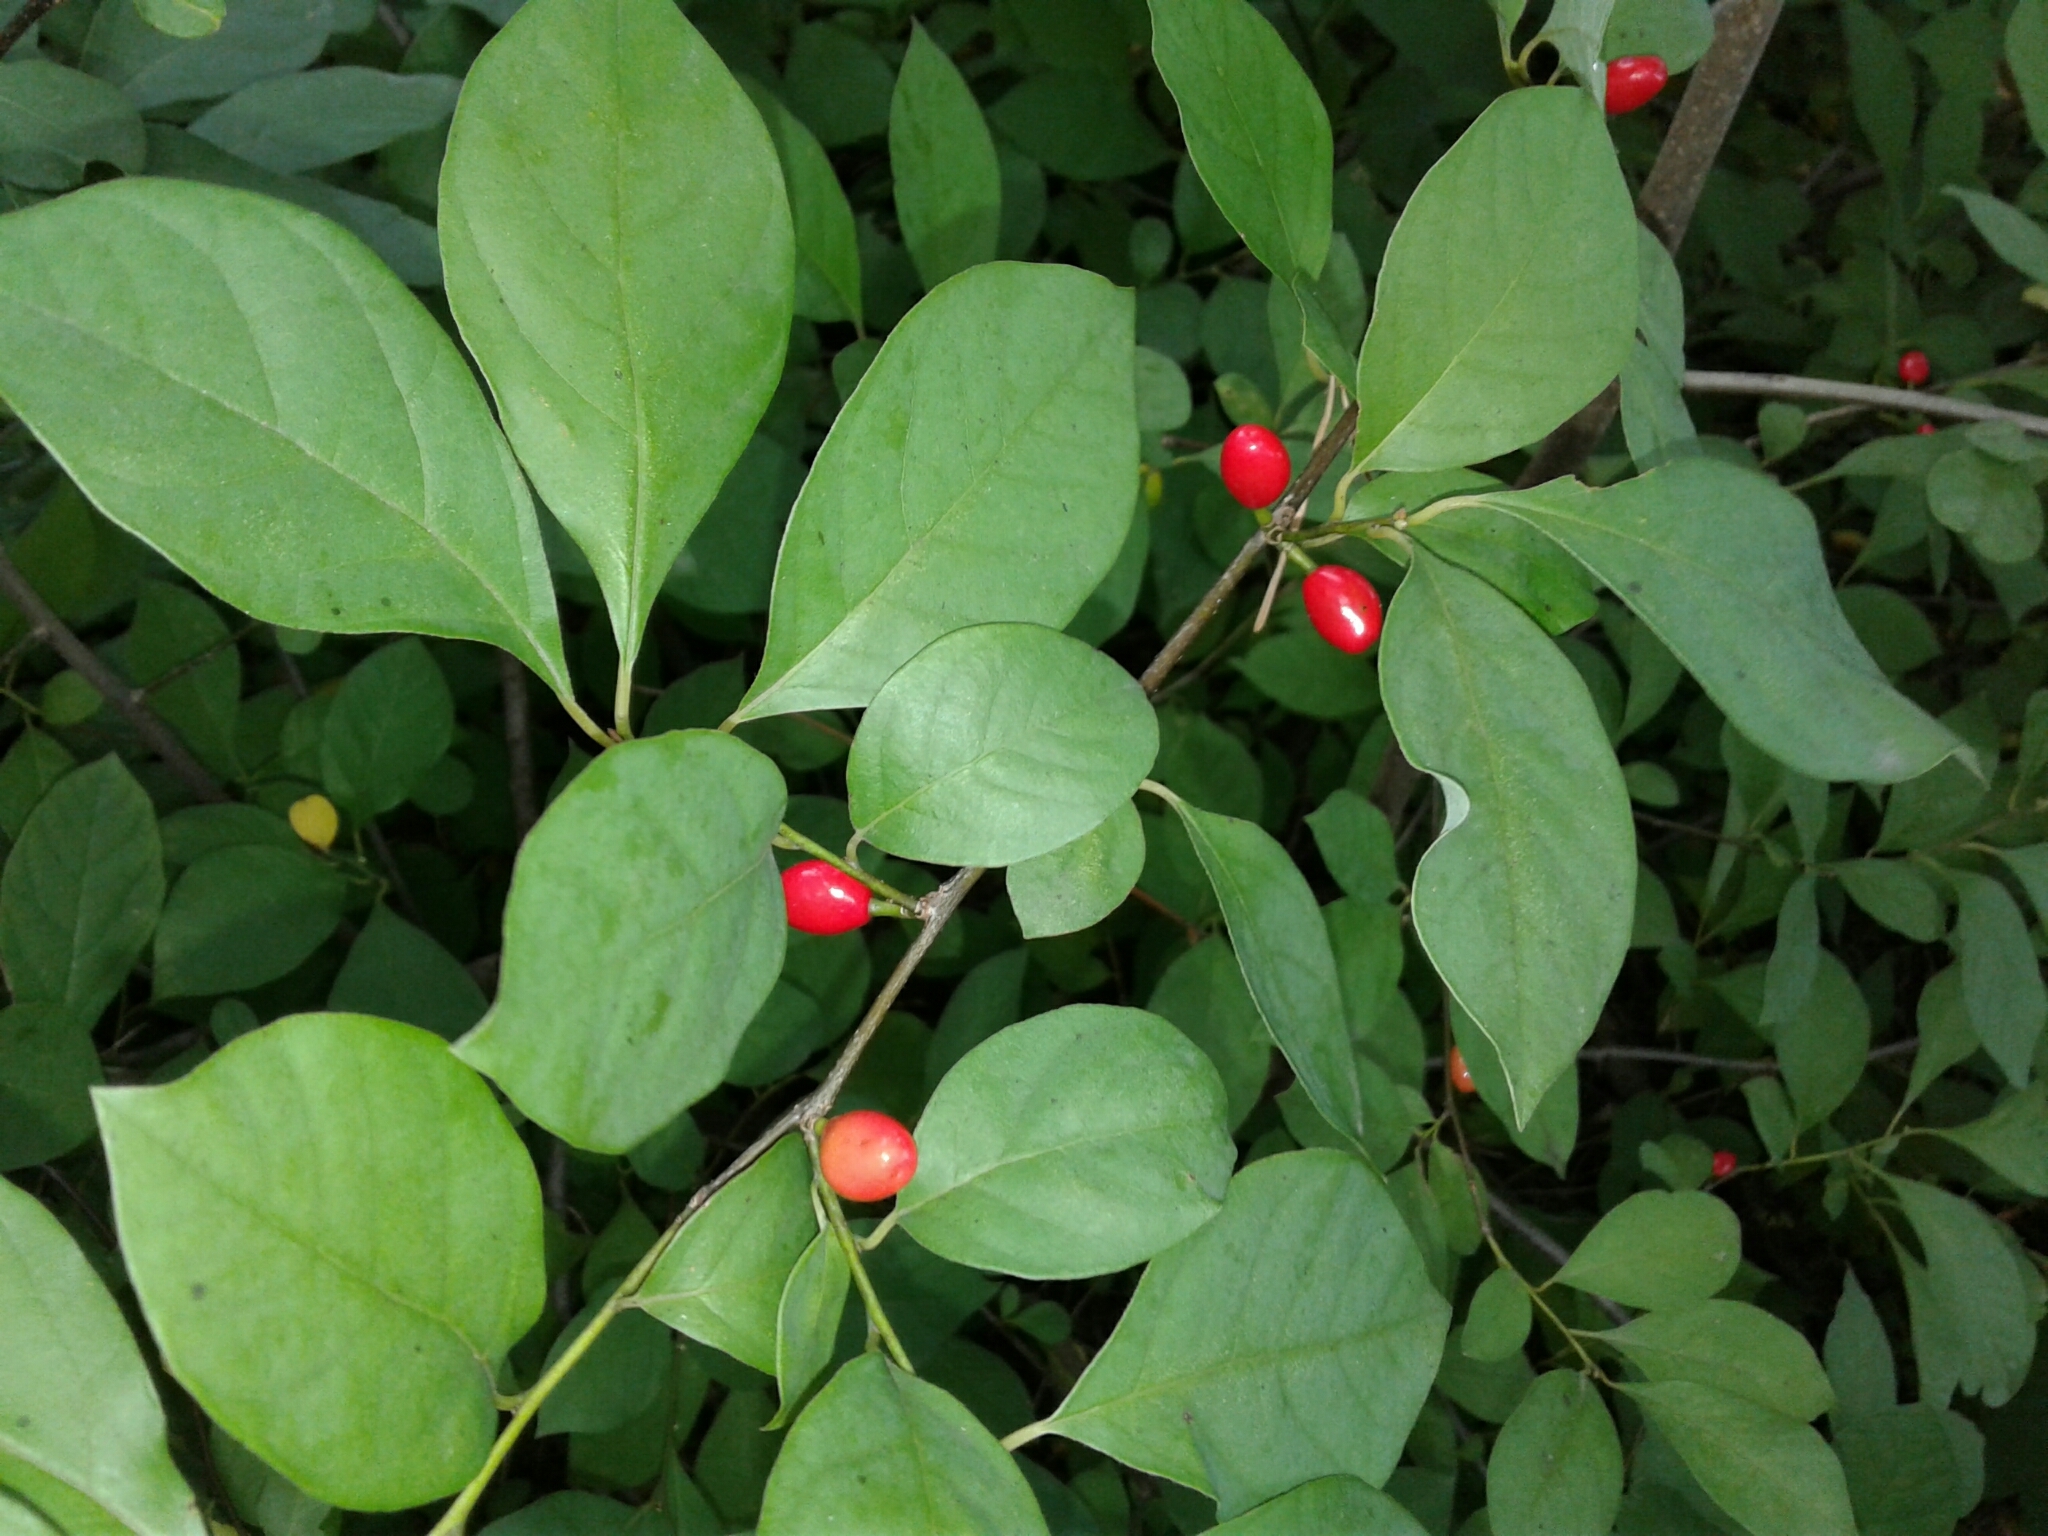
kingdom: Plantae
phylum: Tracheophyta
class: Magnoliopsida
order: Laurales
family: Lauraceae
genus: Lindera
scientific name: Lindera benzoin
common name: Spicebush
